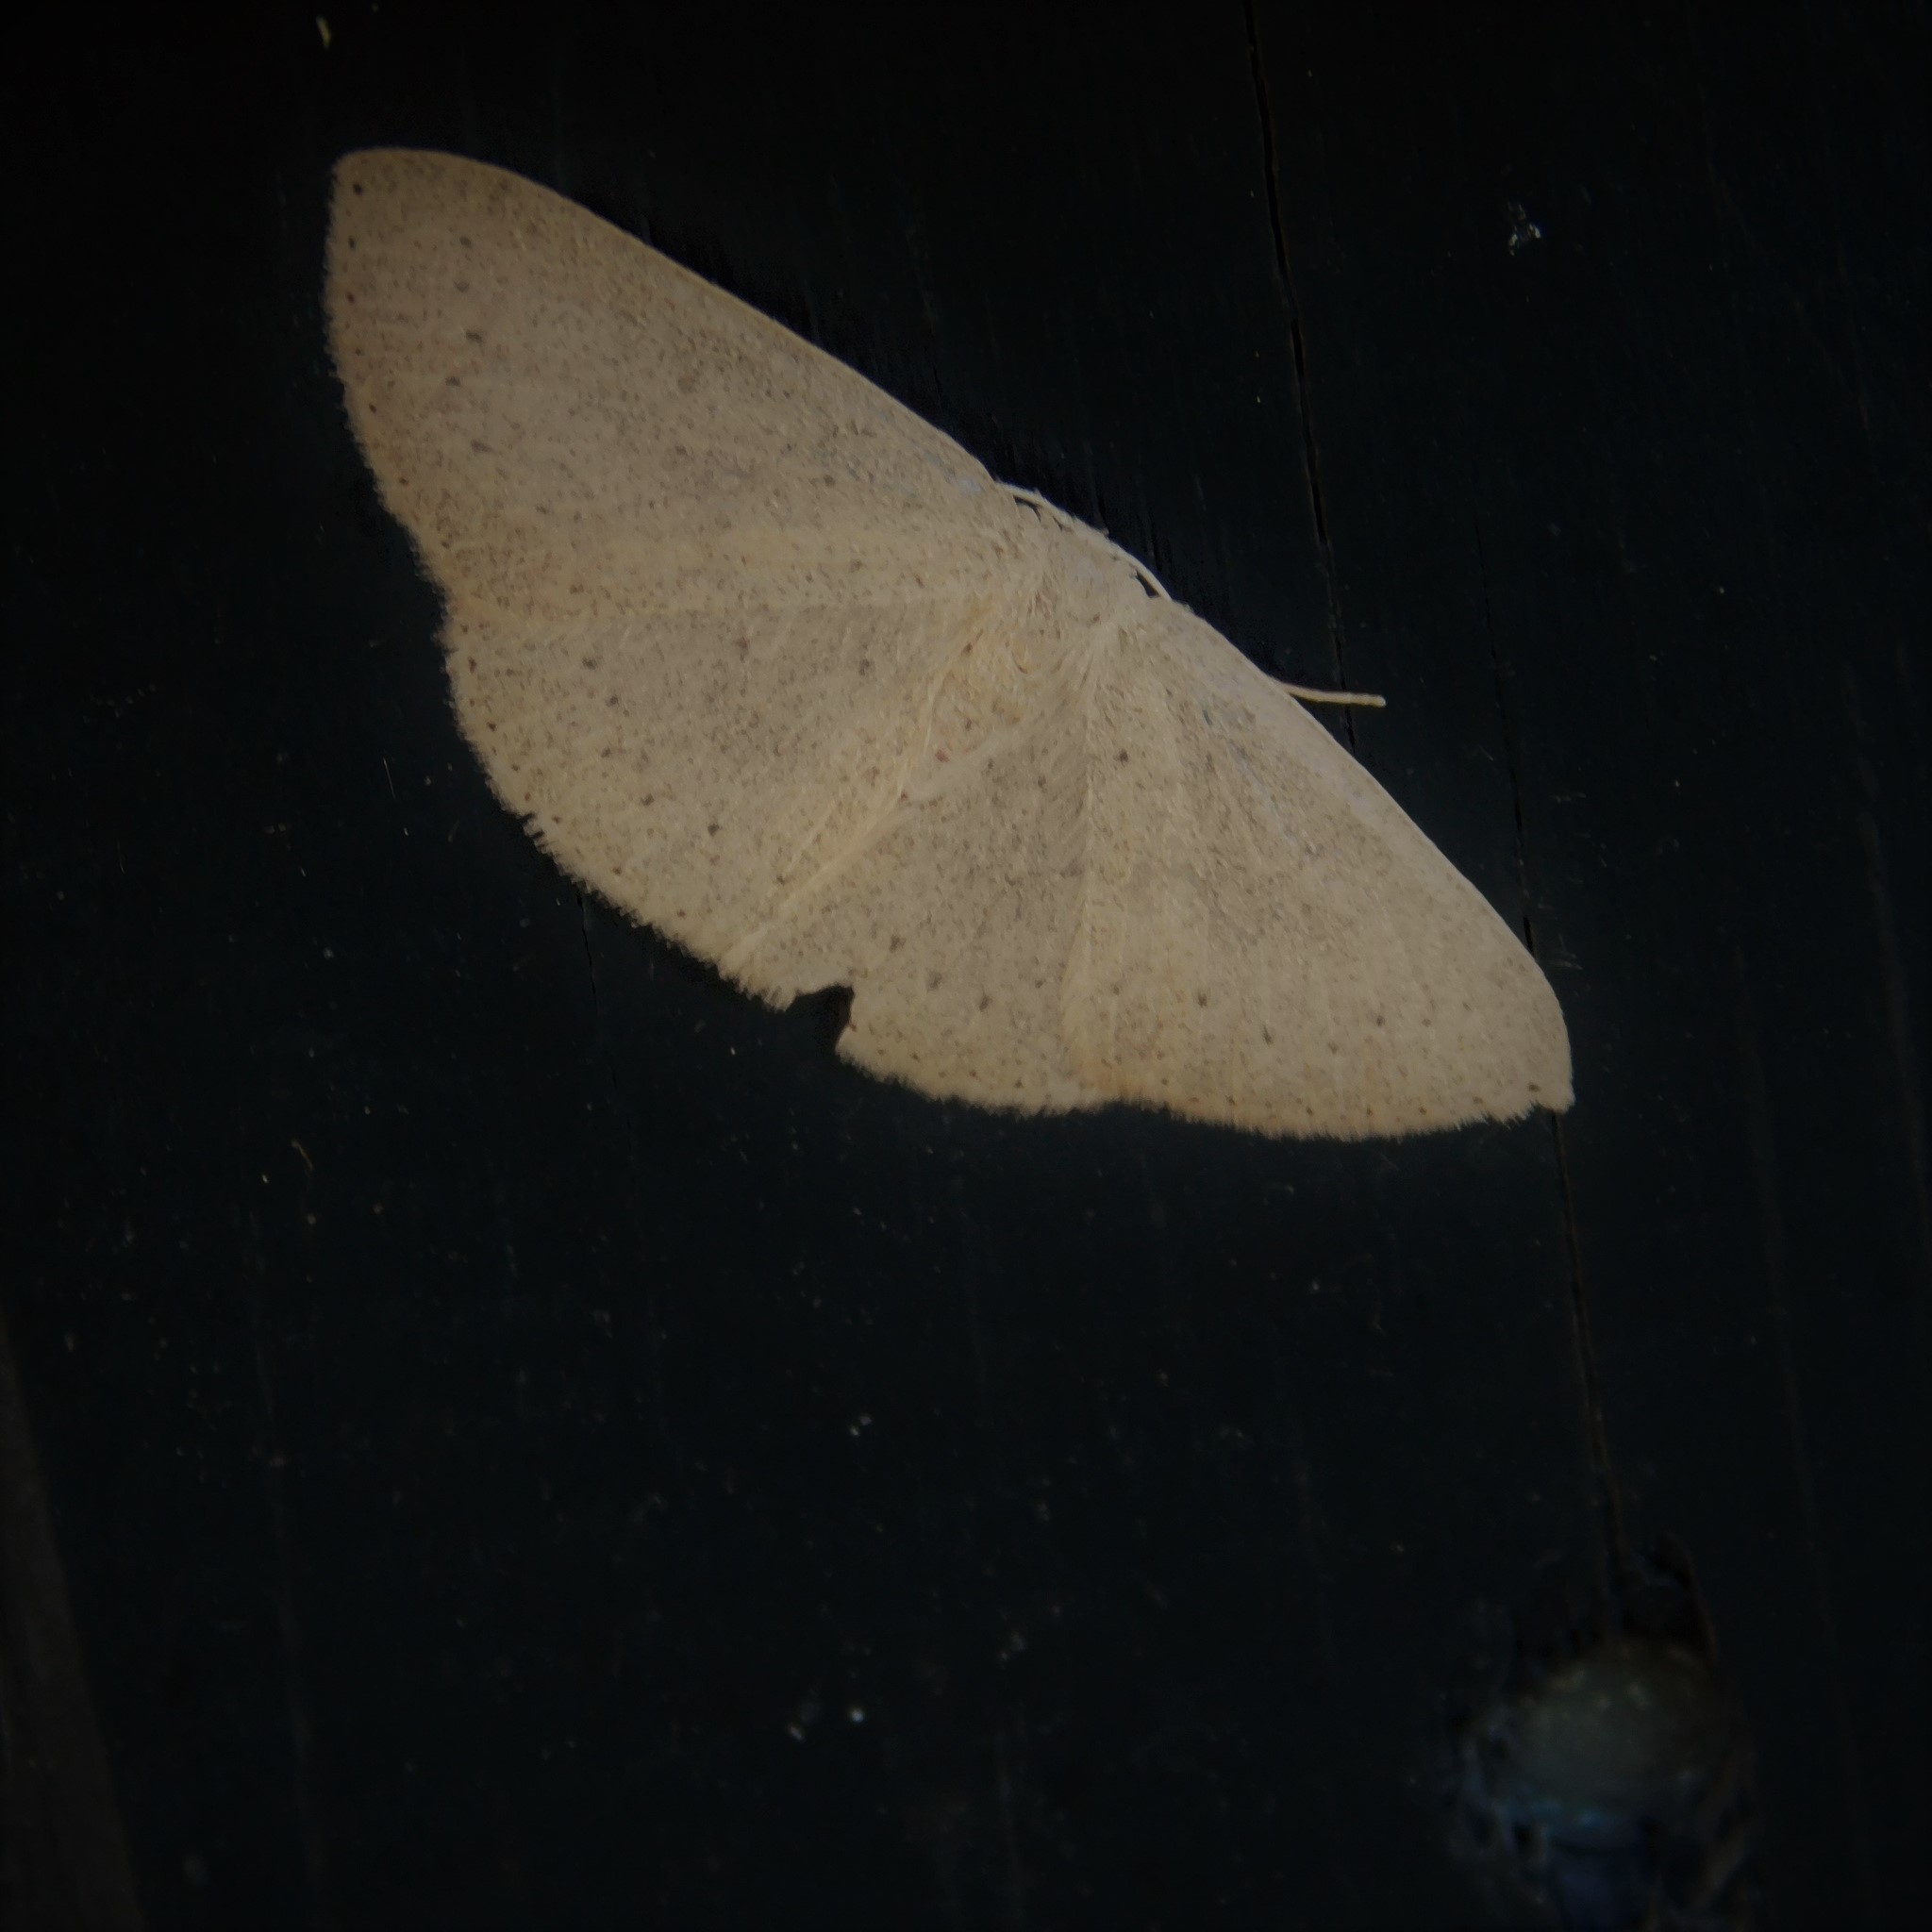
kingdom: Animalia
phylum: Arthropoda
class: Insecta
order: Lepidoptera
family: Geometridae
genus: Cyclophora
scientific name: Cyclophora obstataria
